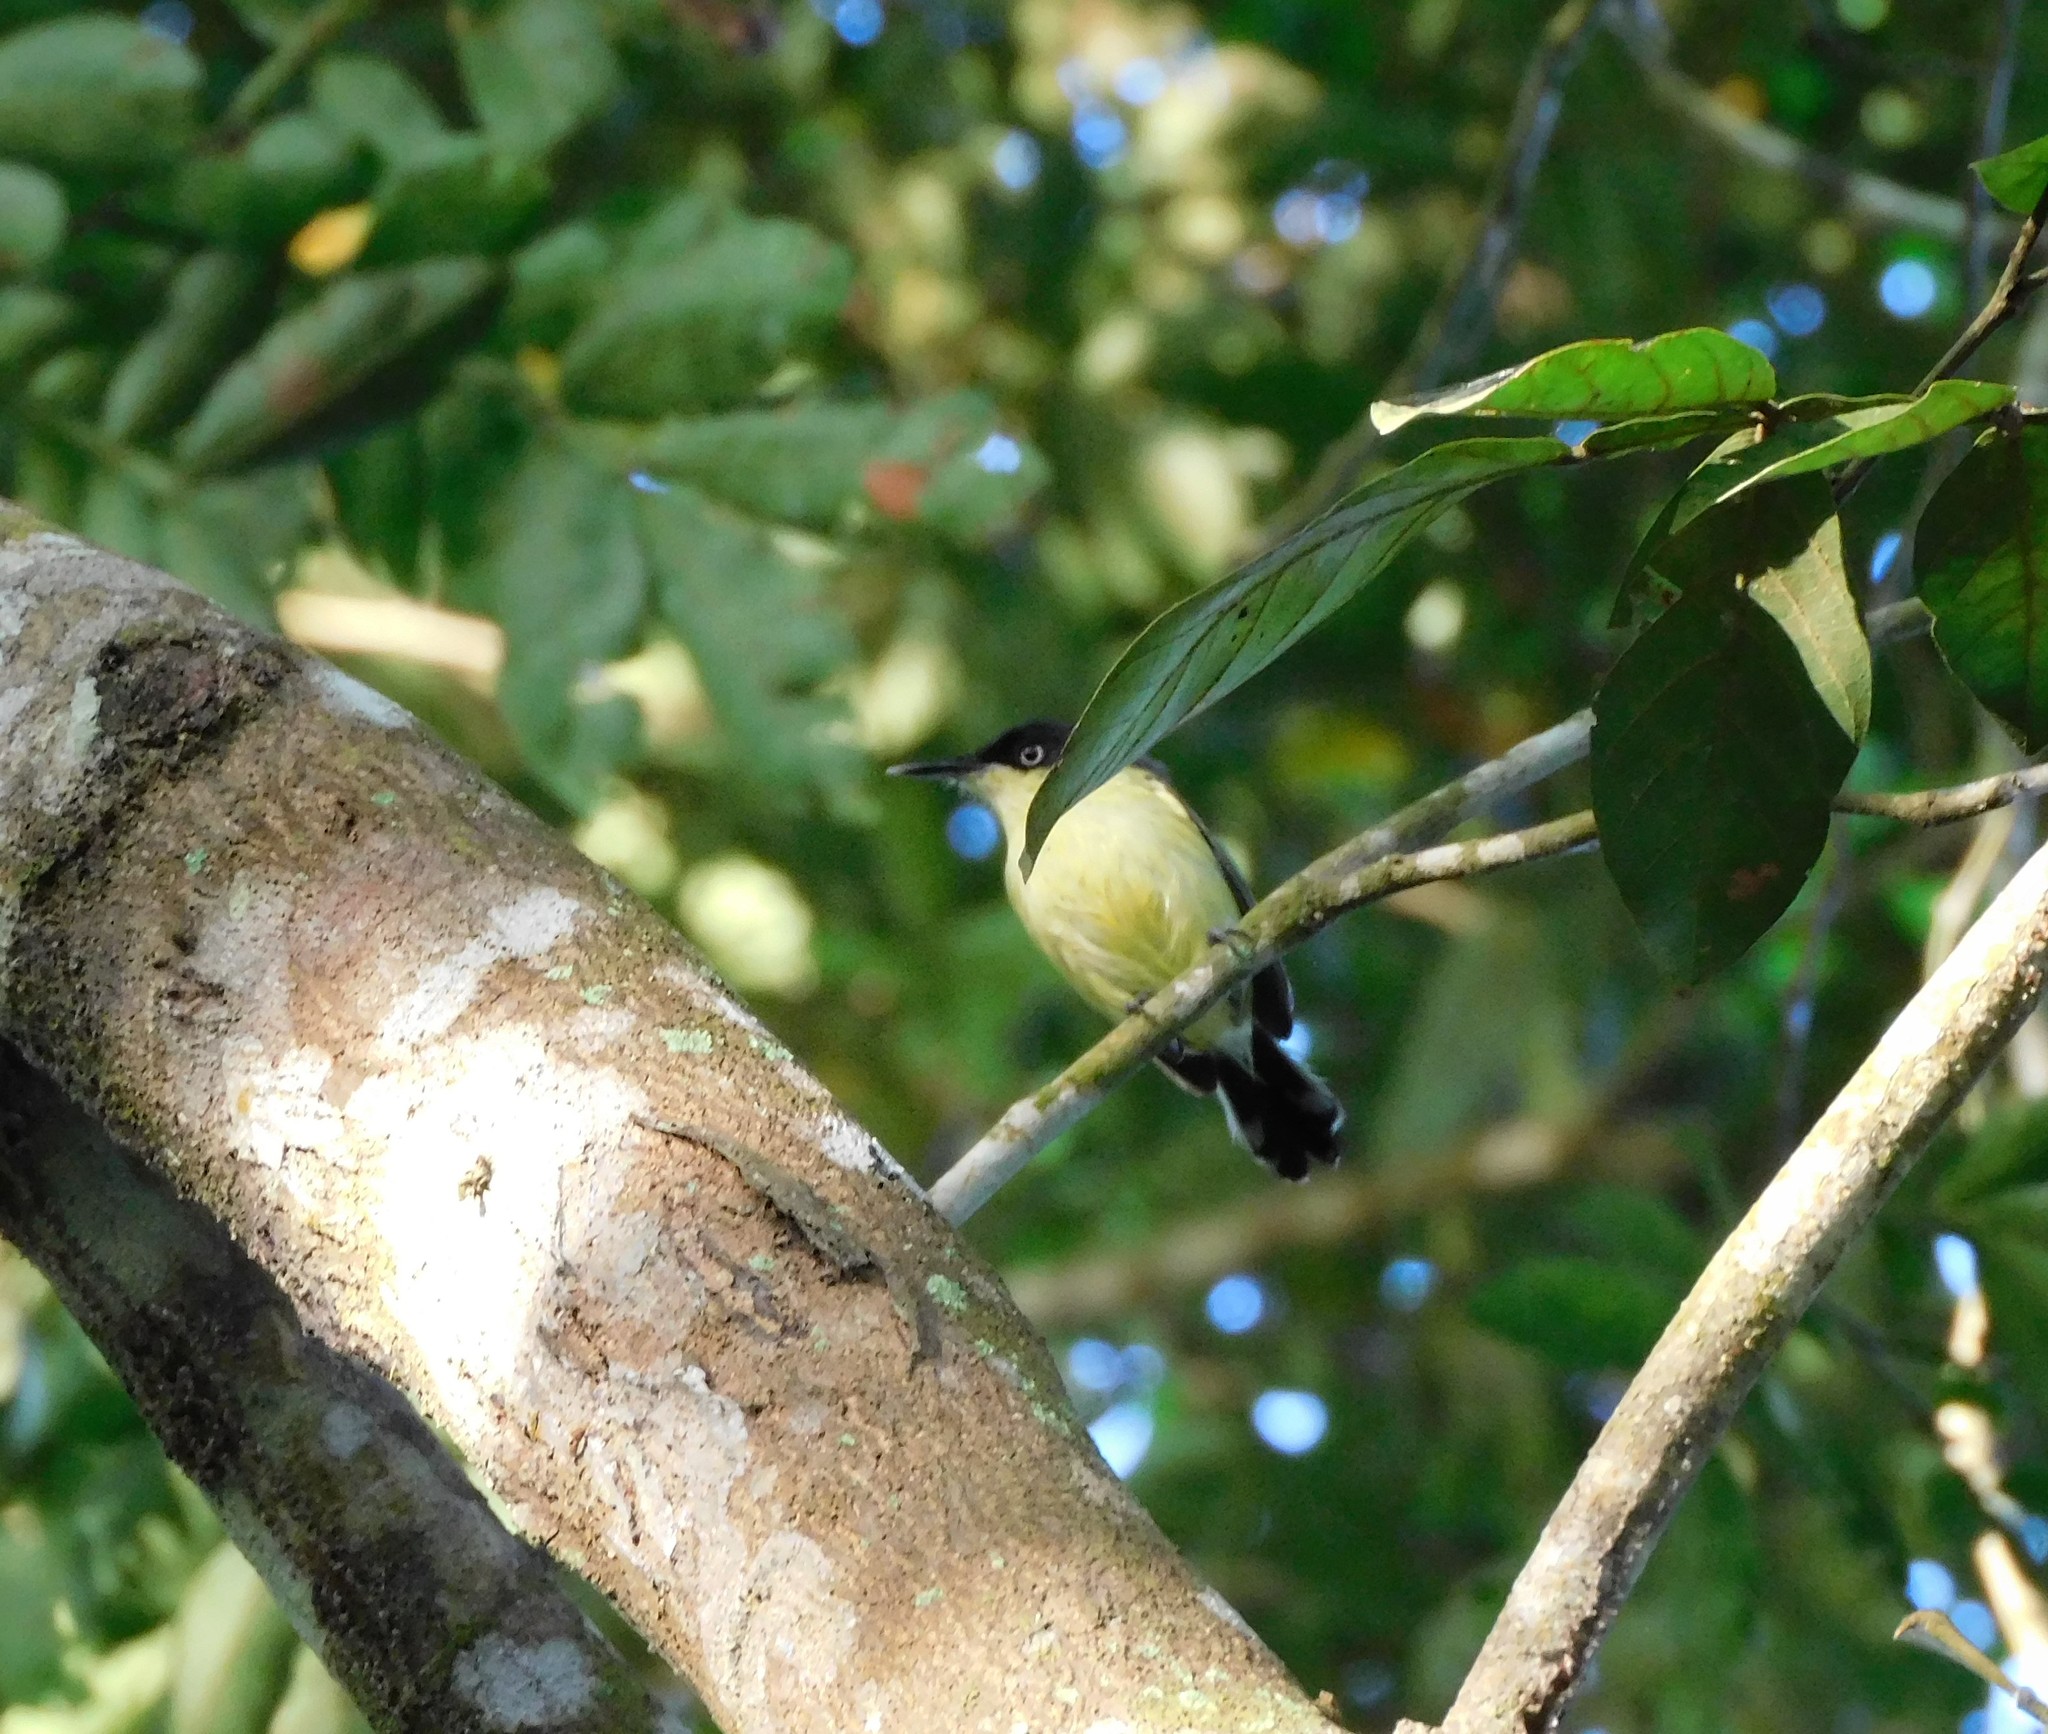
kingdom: Animalia
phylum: Chordata
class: Aves
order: Passeriformes
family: Tyrannidae
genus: Todirostrum
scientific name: Todirostrum cinereum
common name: Common tody-flycatcher
